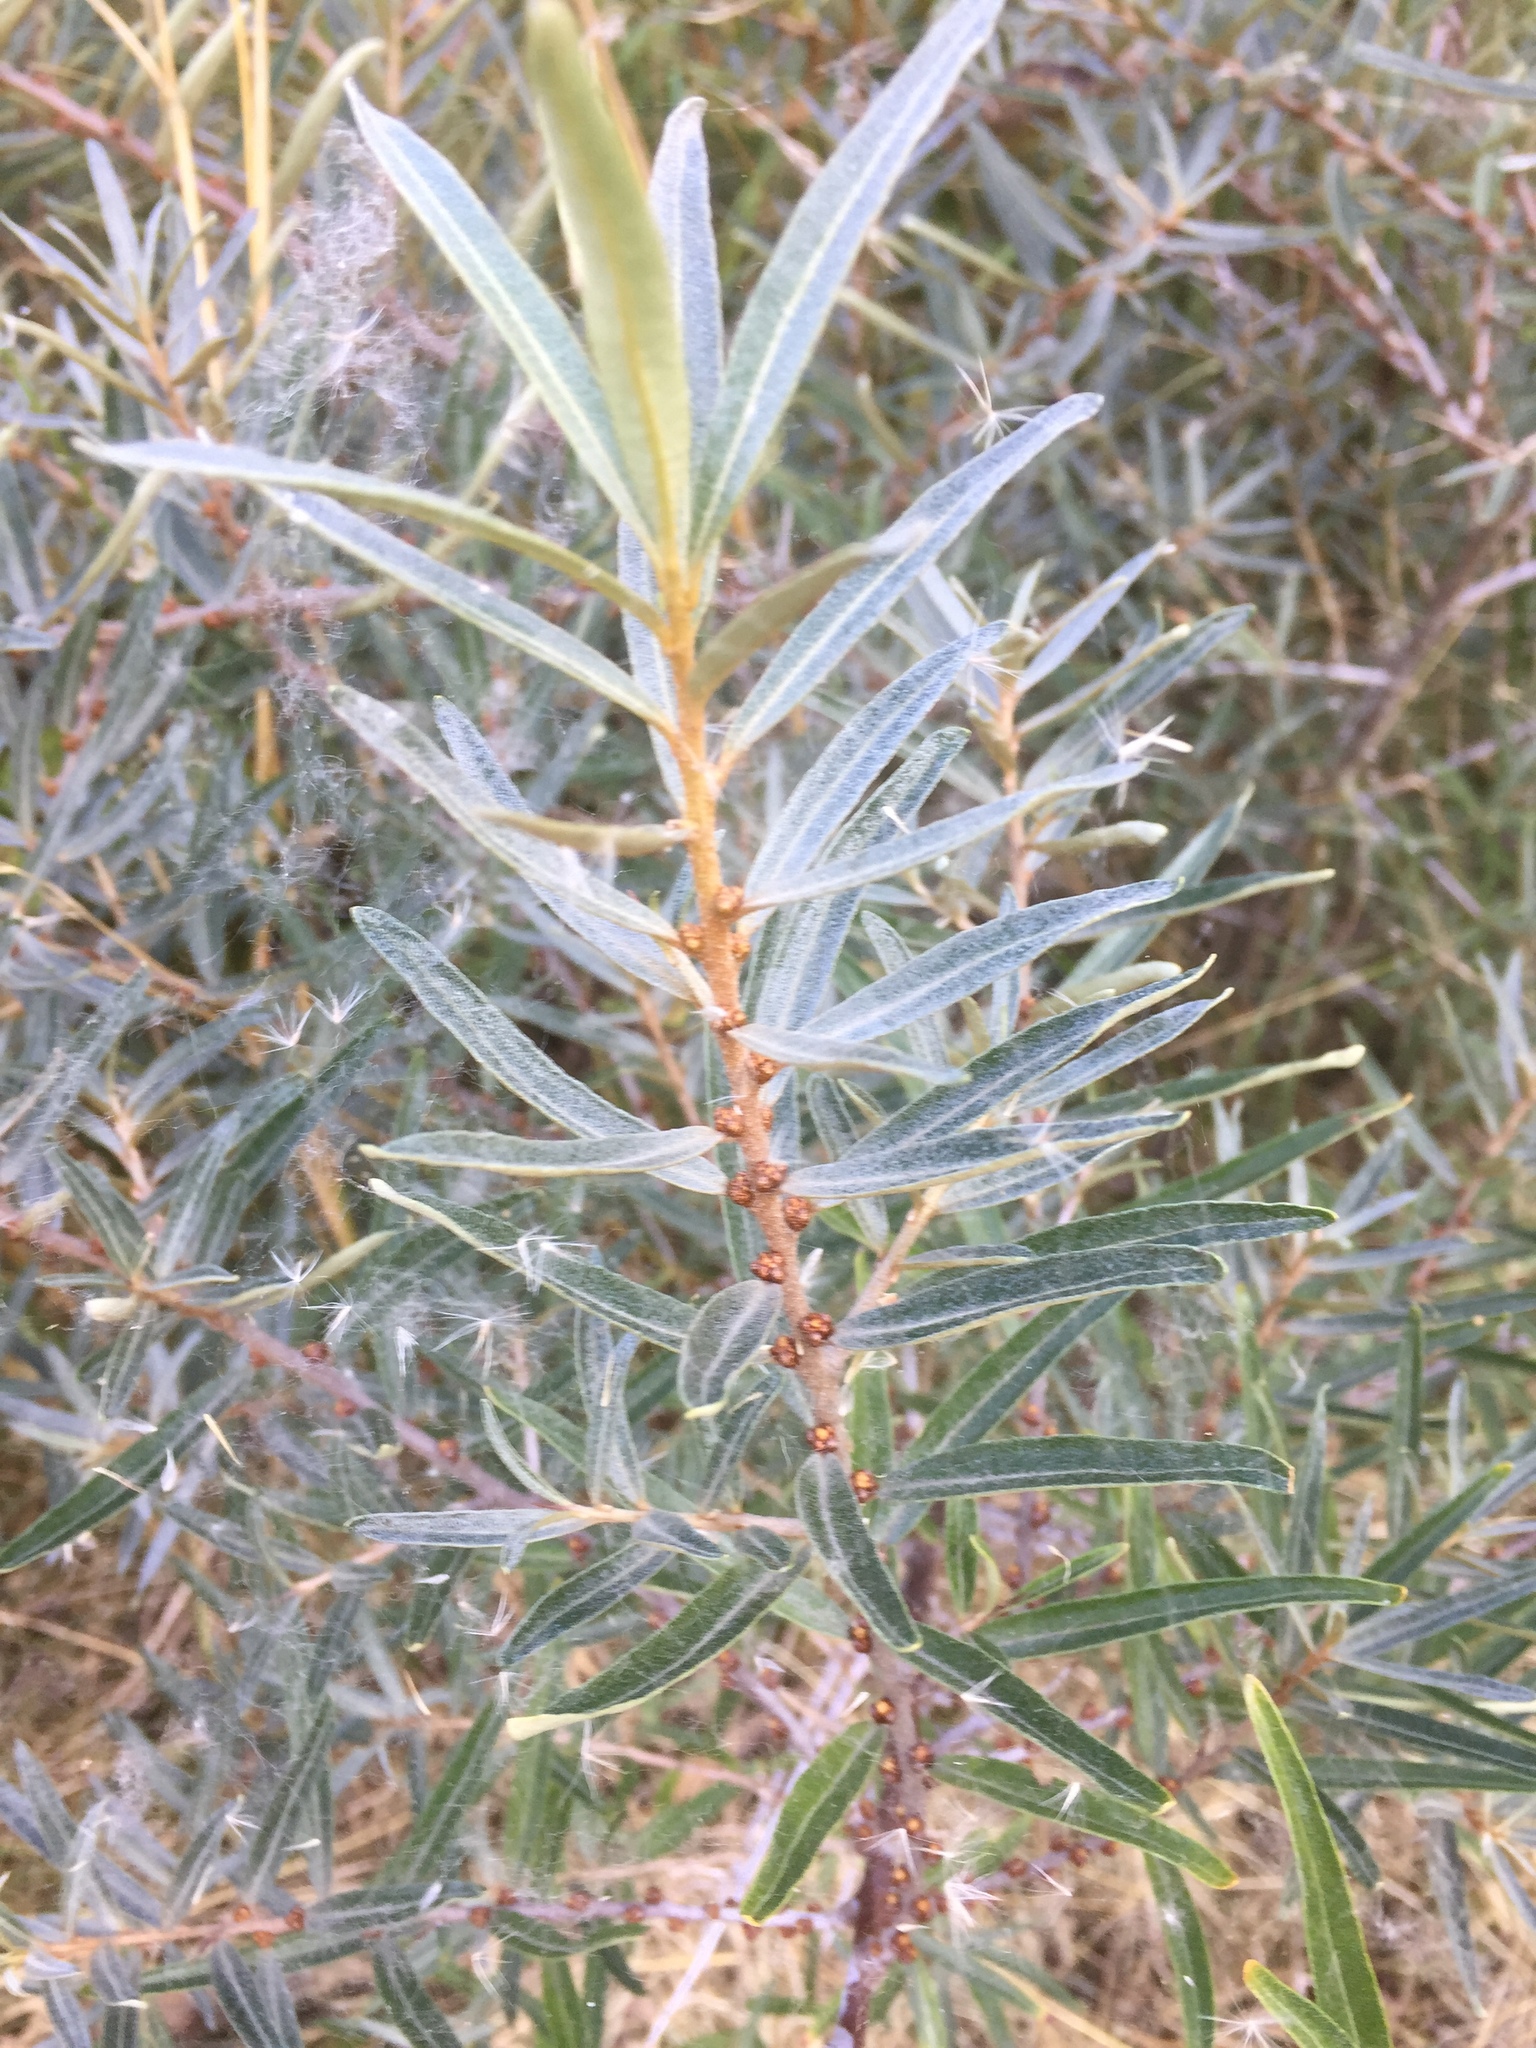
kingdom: Plantae
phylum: Tracheophyta
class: Magnoliopsida
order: Rosales
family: Elaeagnaceae
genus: Hippophae
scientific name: Hippophae rhamnoides
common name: Sea-buckthorn
